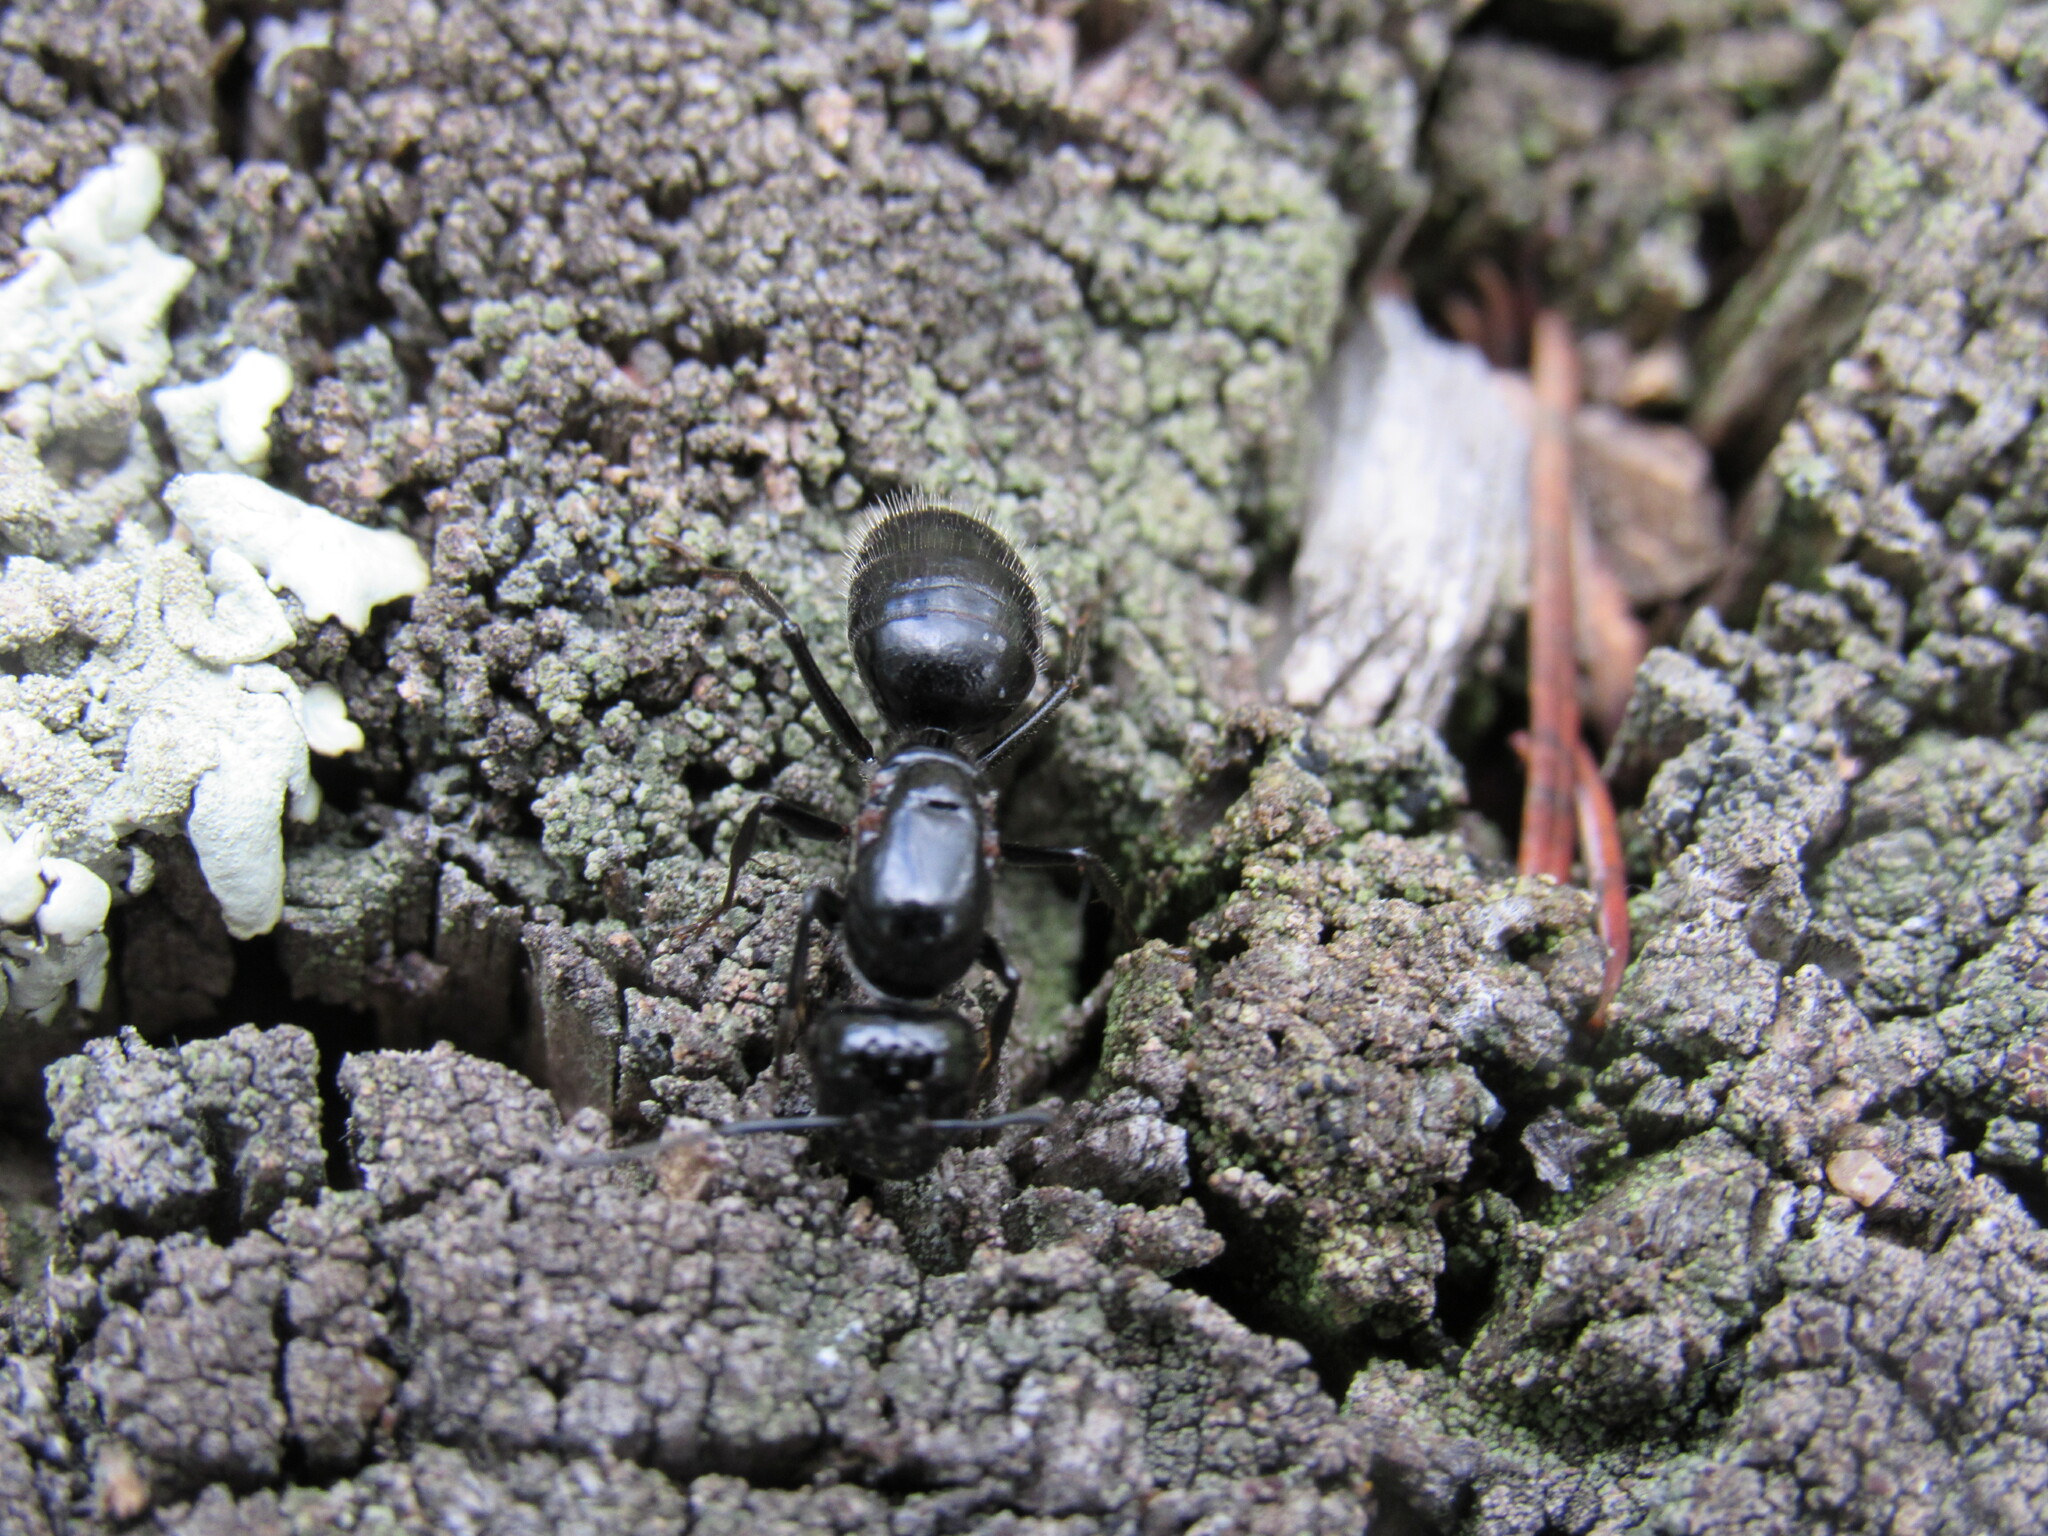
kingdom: Animalia
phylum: Arthropoda
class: Insecta
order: Hymenoptera
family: Formicidae
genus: Camponotus
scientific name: Camponotus
